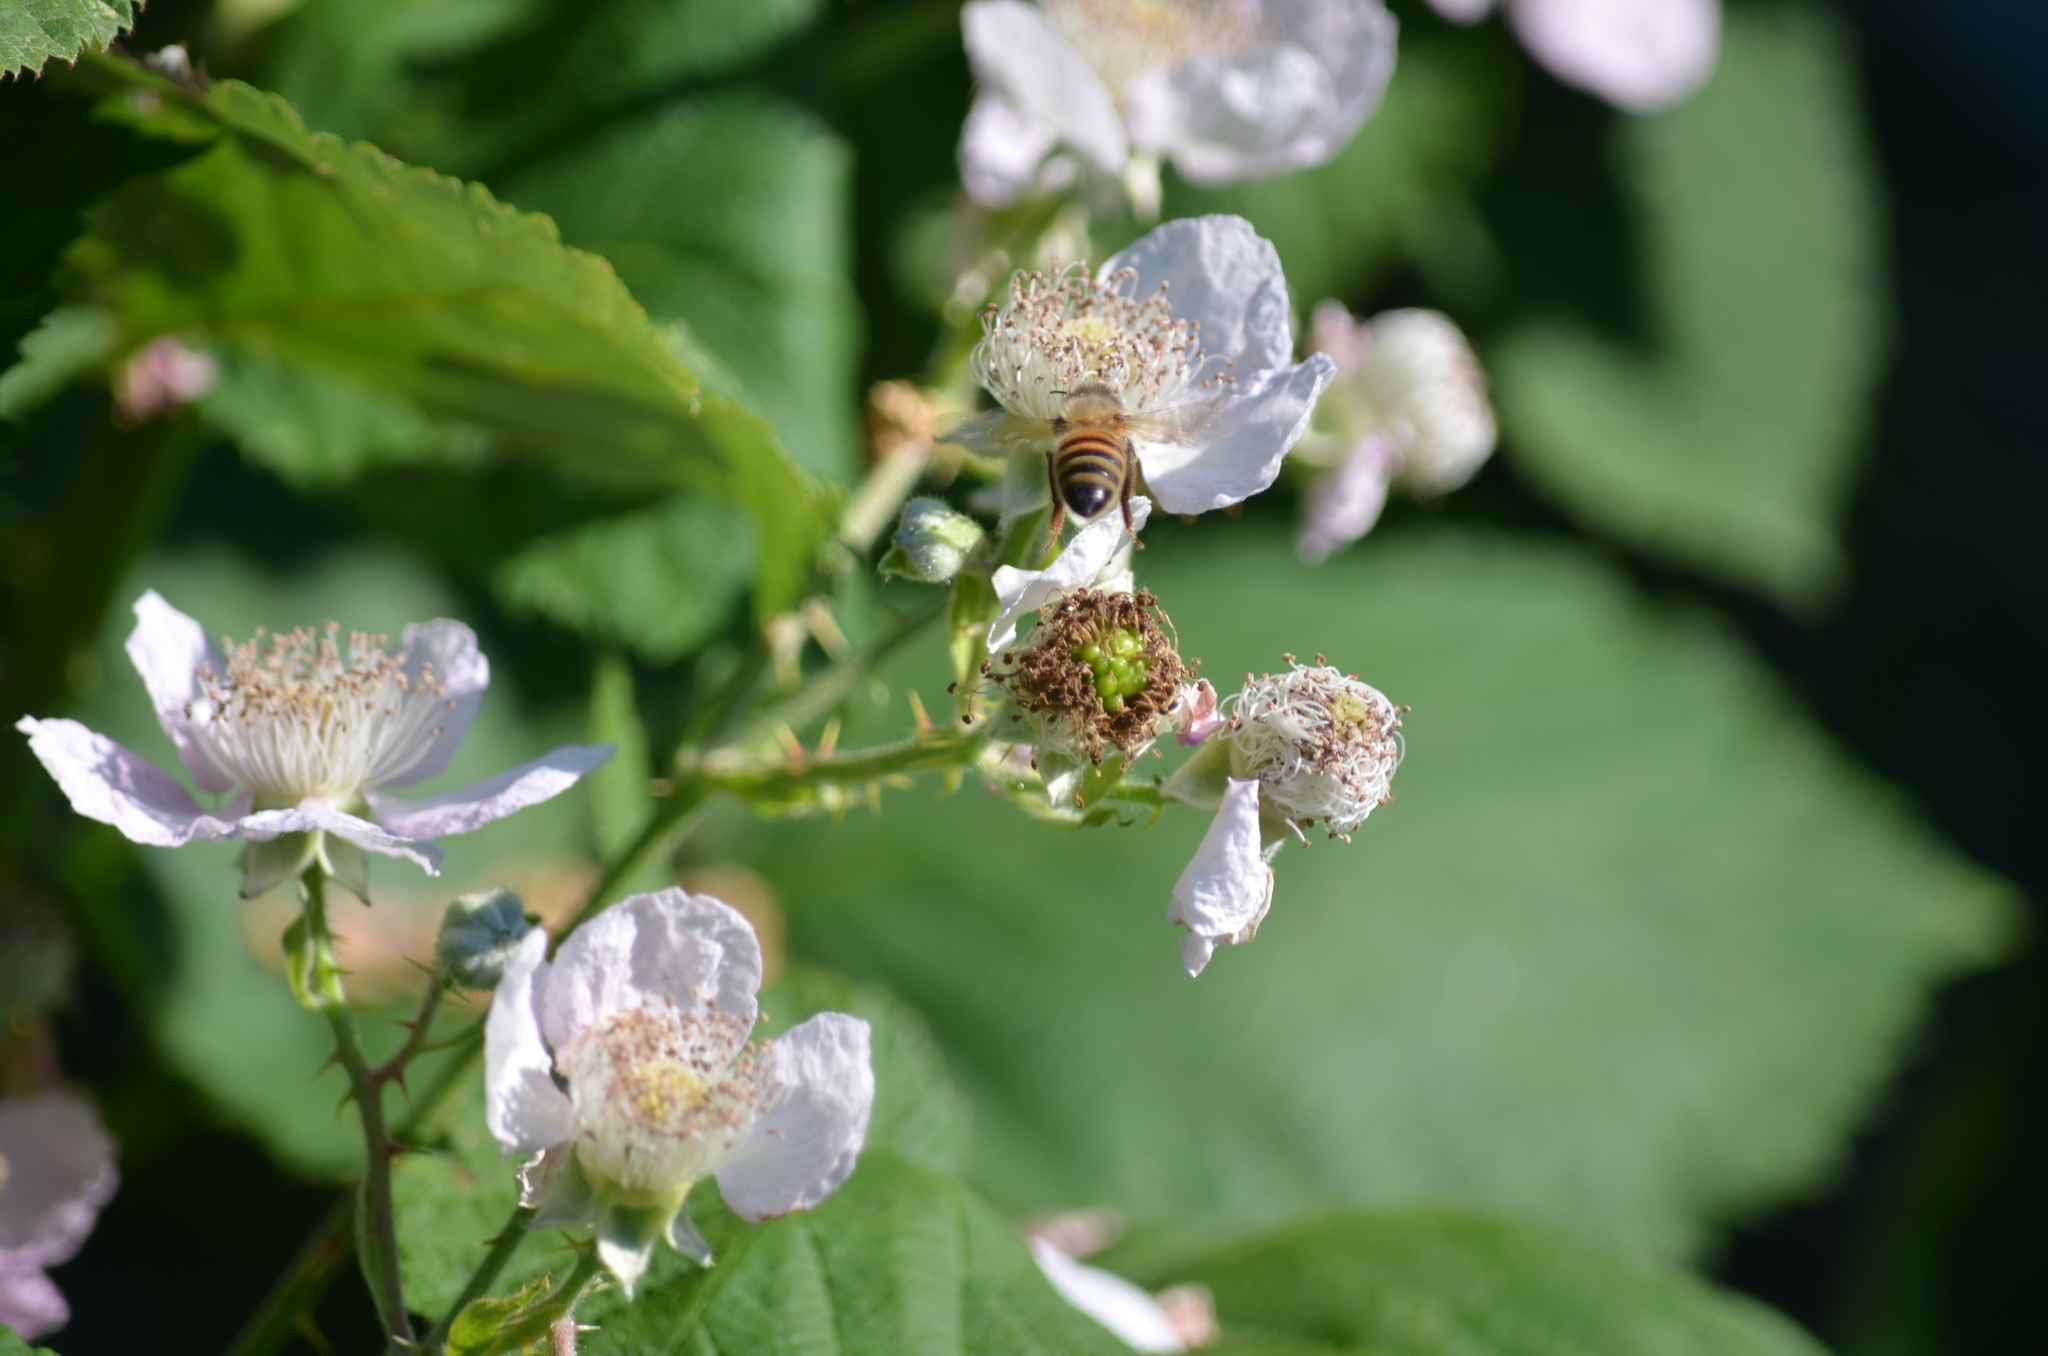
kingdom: Animalia
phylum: Arthropoda
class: Insecta
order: Hymenoptera
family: Apidae
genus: Apis
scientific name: Apis mellifera
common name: Honey bee
